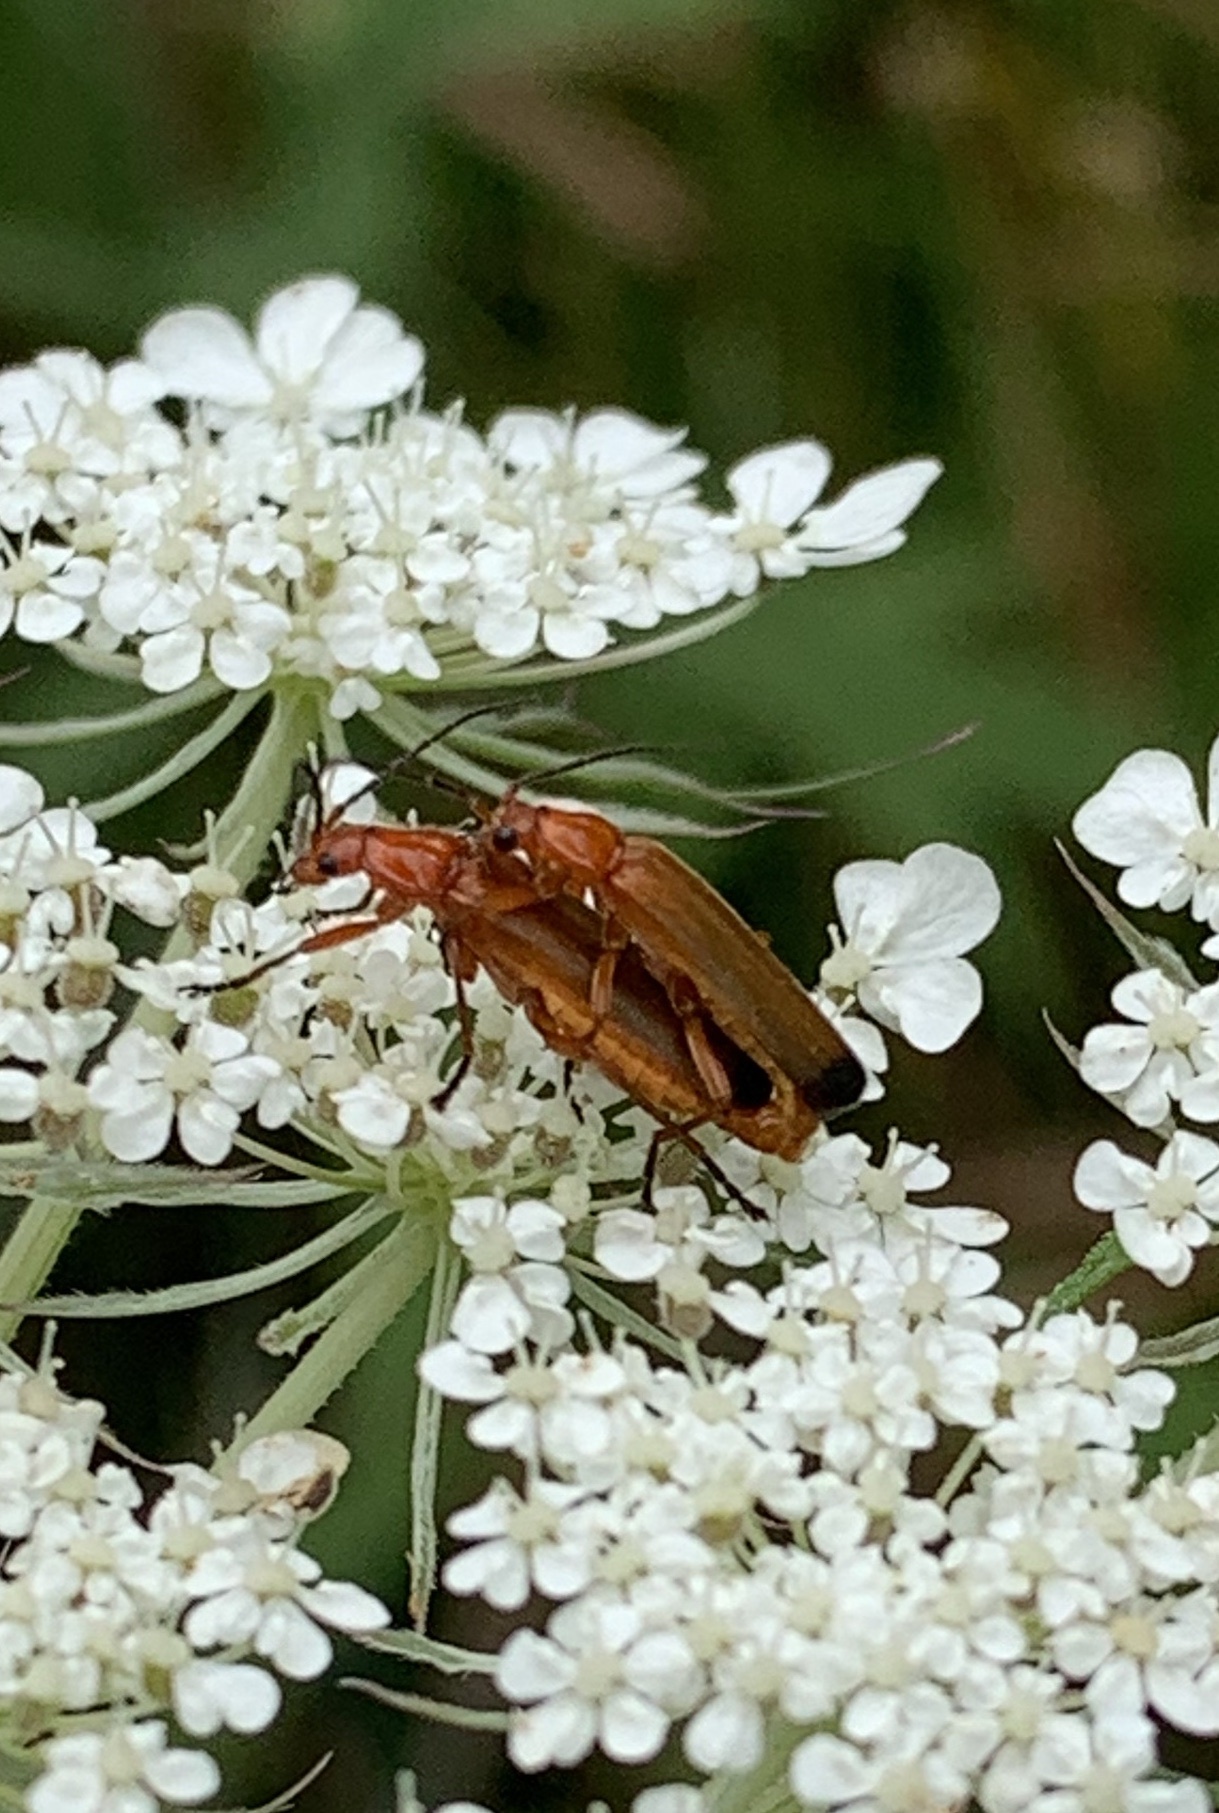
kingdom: Animalia
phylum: Arthropoda
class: Insecta
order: Coleoptera
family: Cantharidae
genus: Rhagonycha
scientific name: Rhagonycha fulva
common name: Common red soldier beetle
